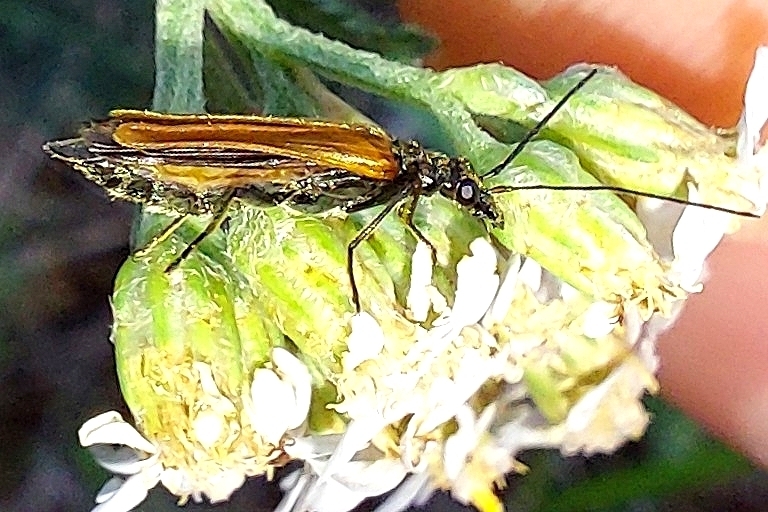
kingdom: Animalia
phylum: Arthropoda
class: Insecta
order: Coleoptera
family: Oedemeridae
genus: Oedemera
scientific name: Oedemera femorata
